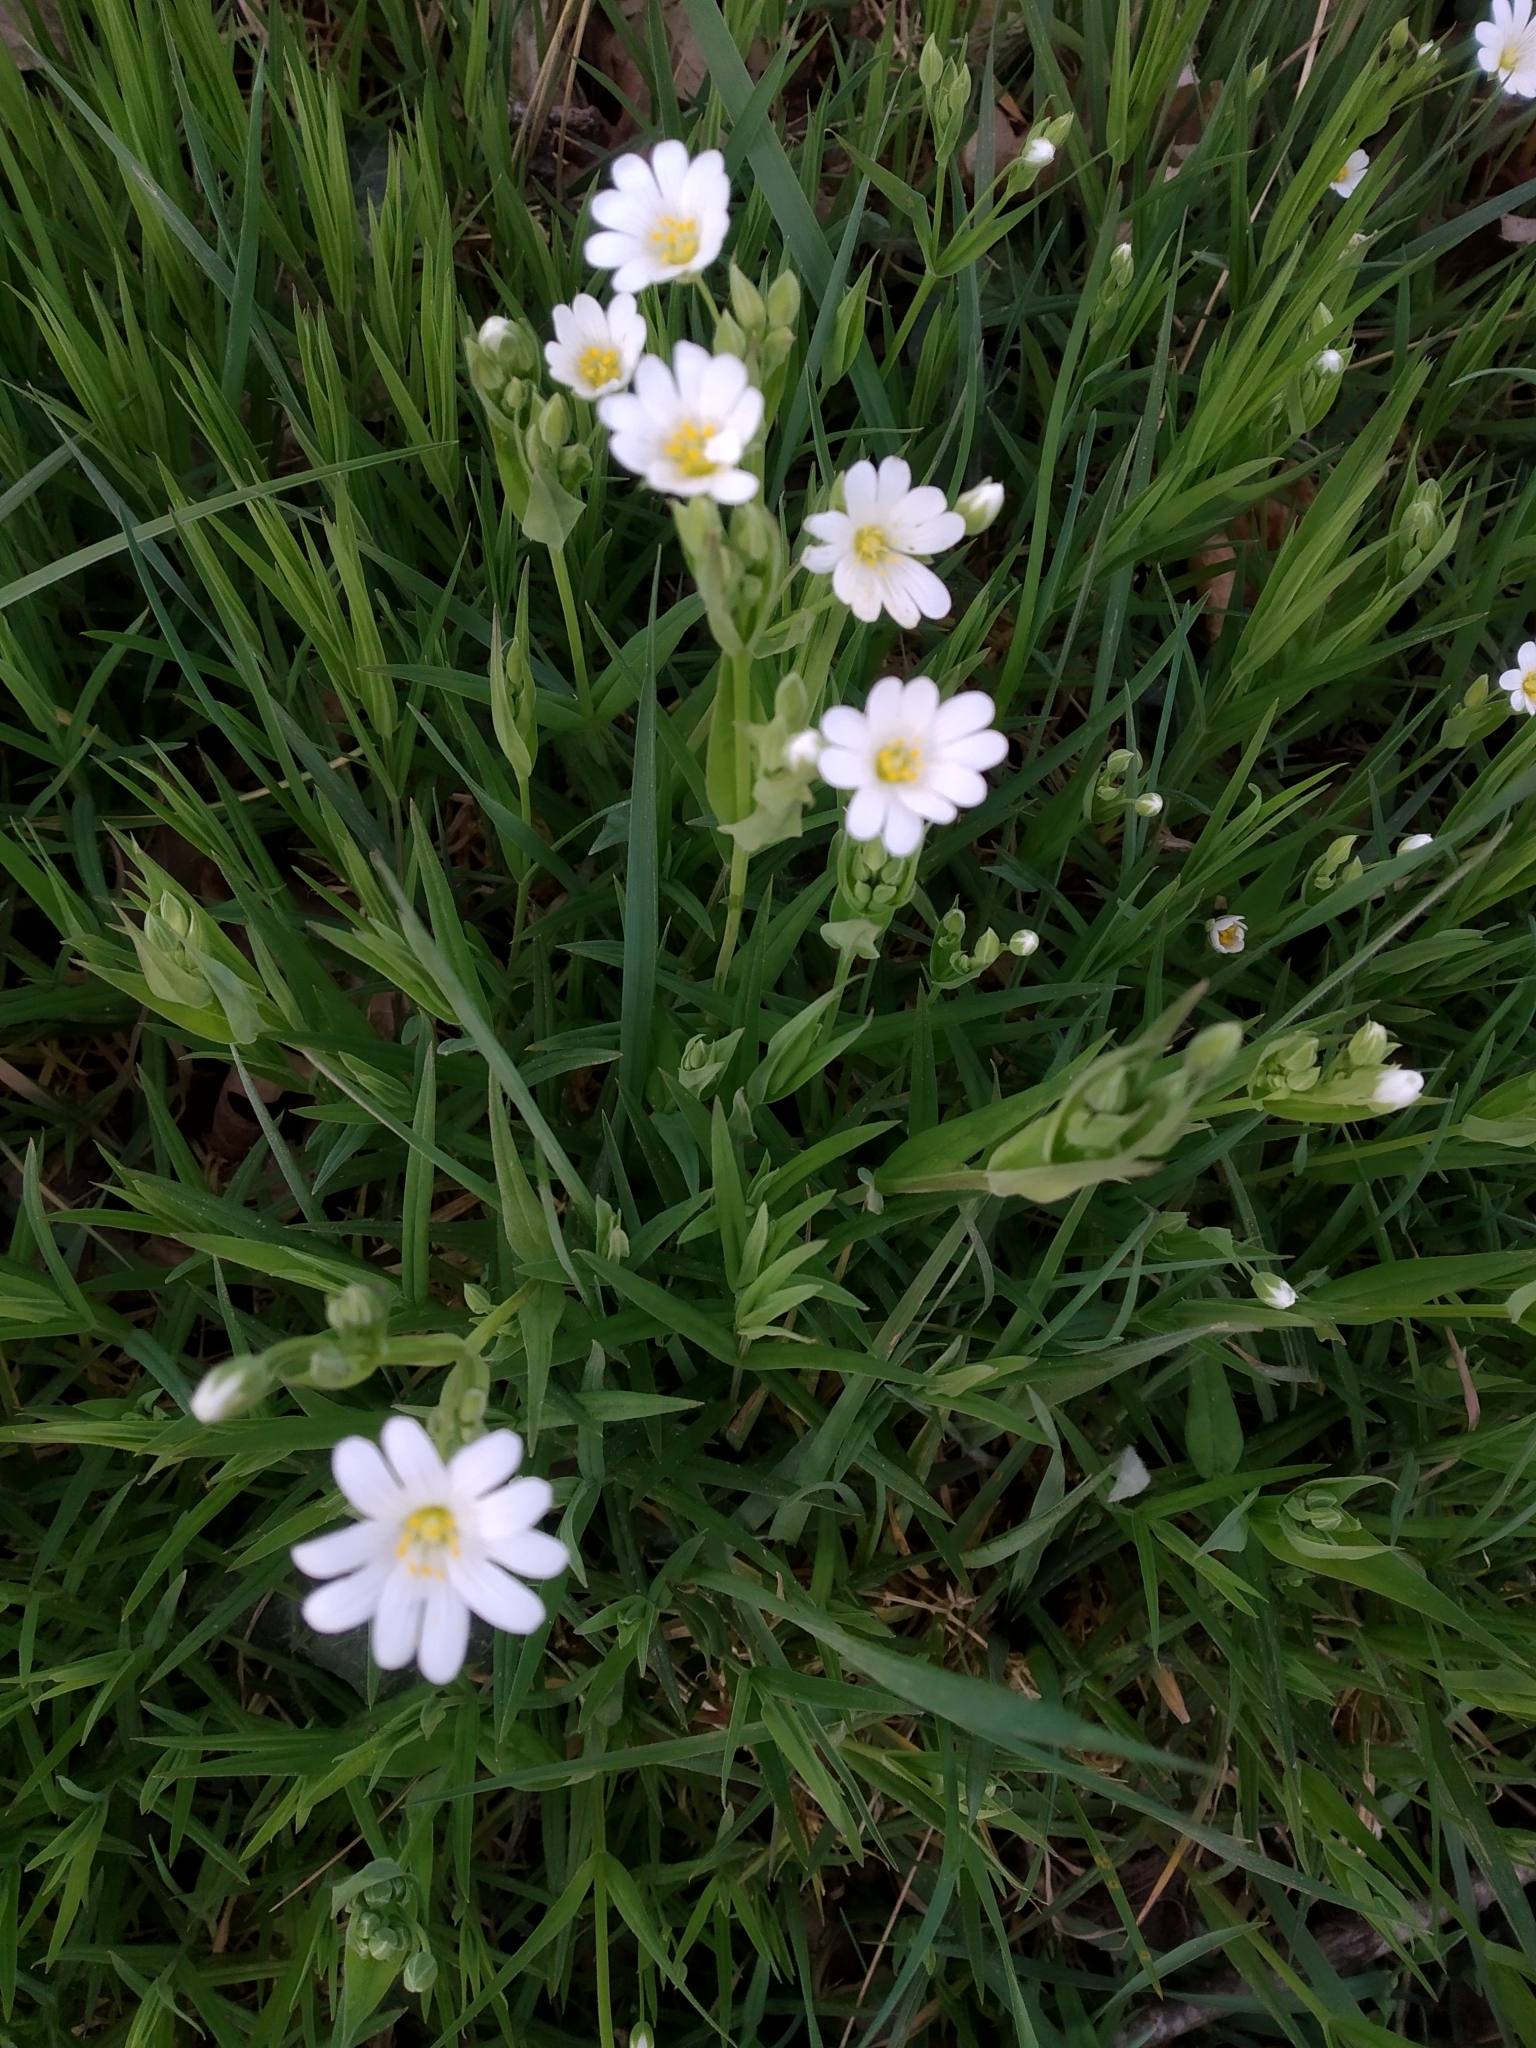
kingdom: Plantae
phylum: Tracheophyta
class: Magnoliopsida
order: Caryophyllales
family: Caryophyllaceae
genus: Rabelera
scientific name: Rabelera holostea
